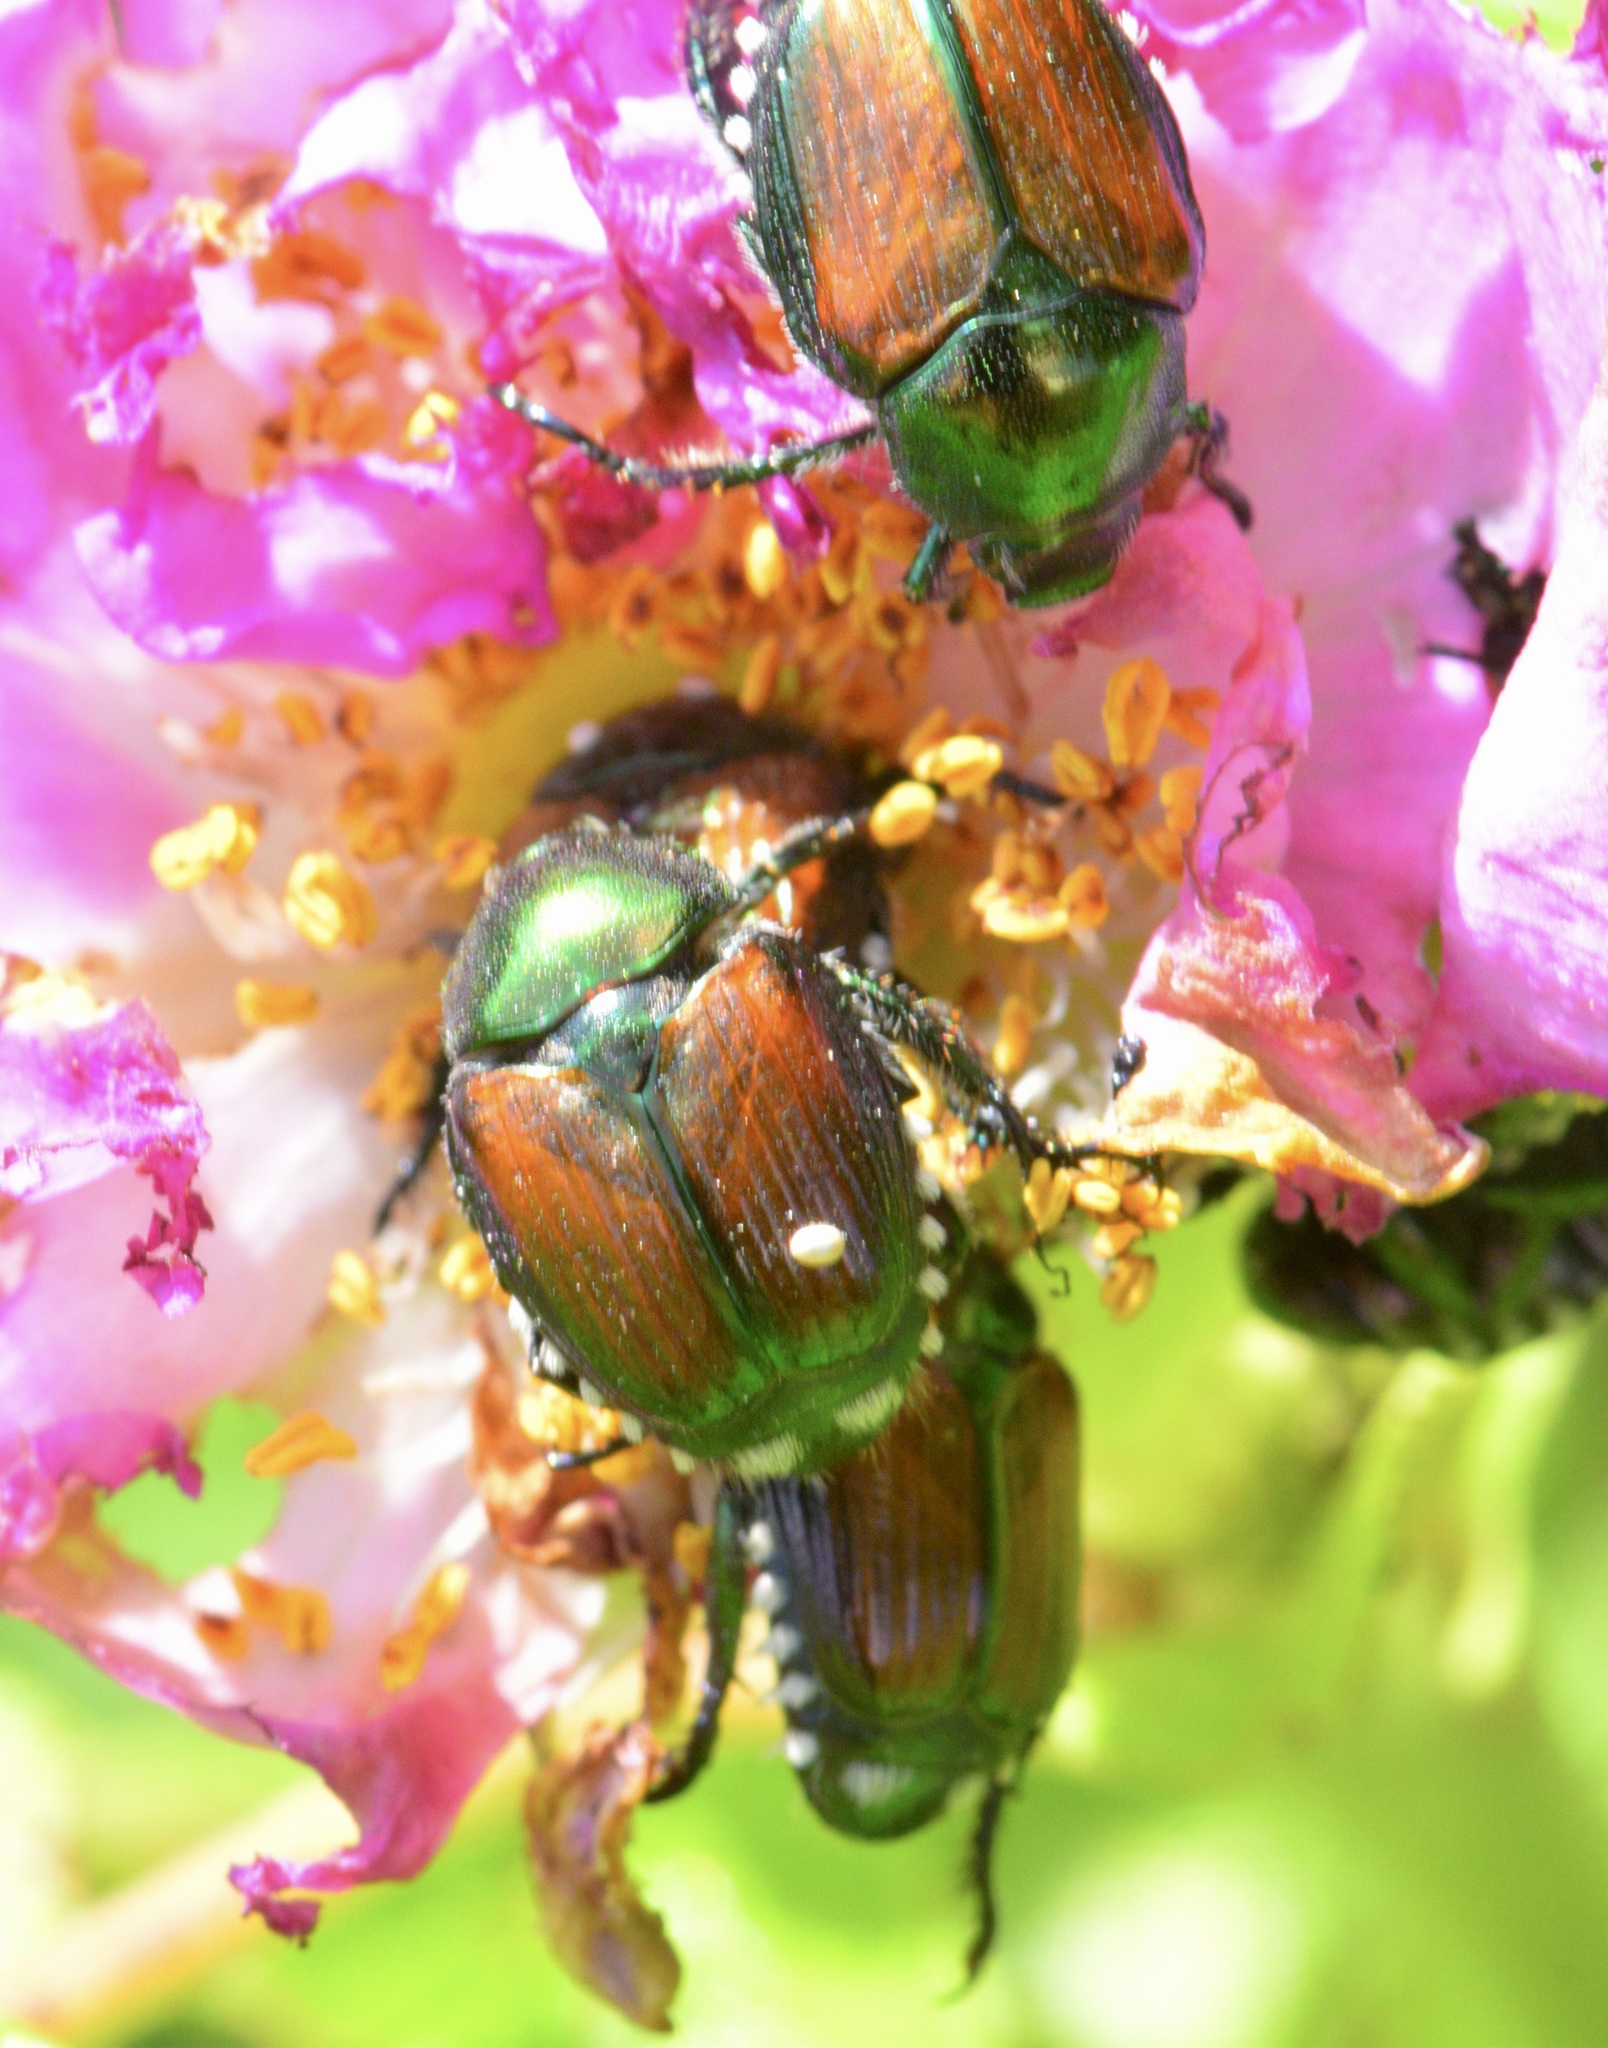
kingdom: Animalia
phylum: Arthropoda
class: Insecta
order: Coleoptera
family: Scarabaeidae
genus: Popillia
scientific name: Popillia japonica
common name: Japanese beetle
